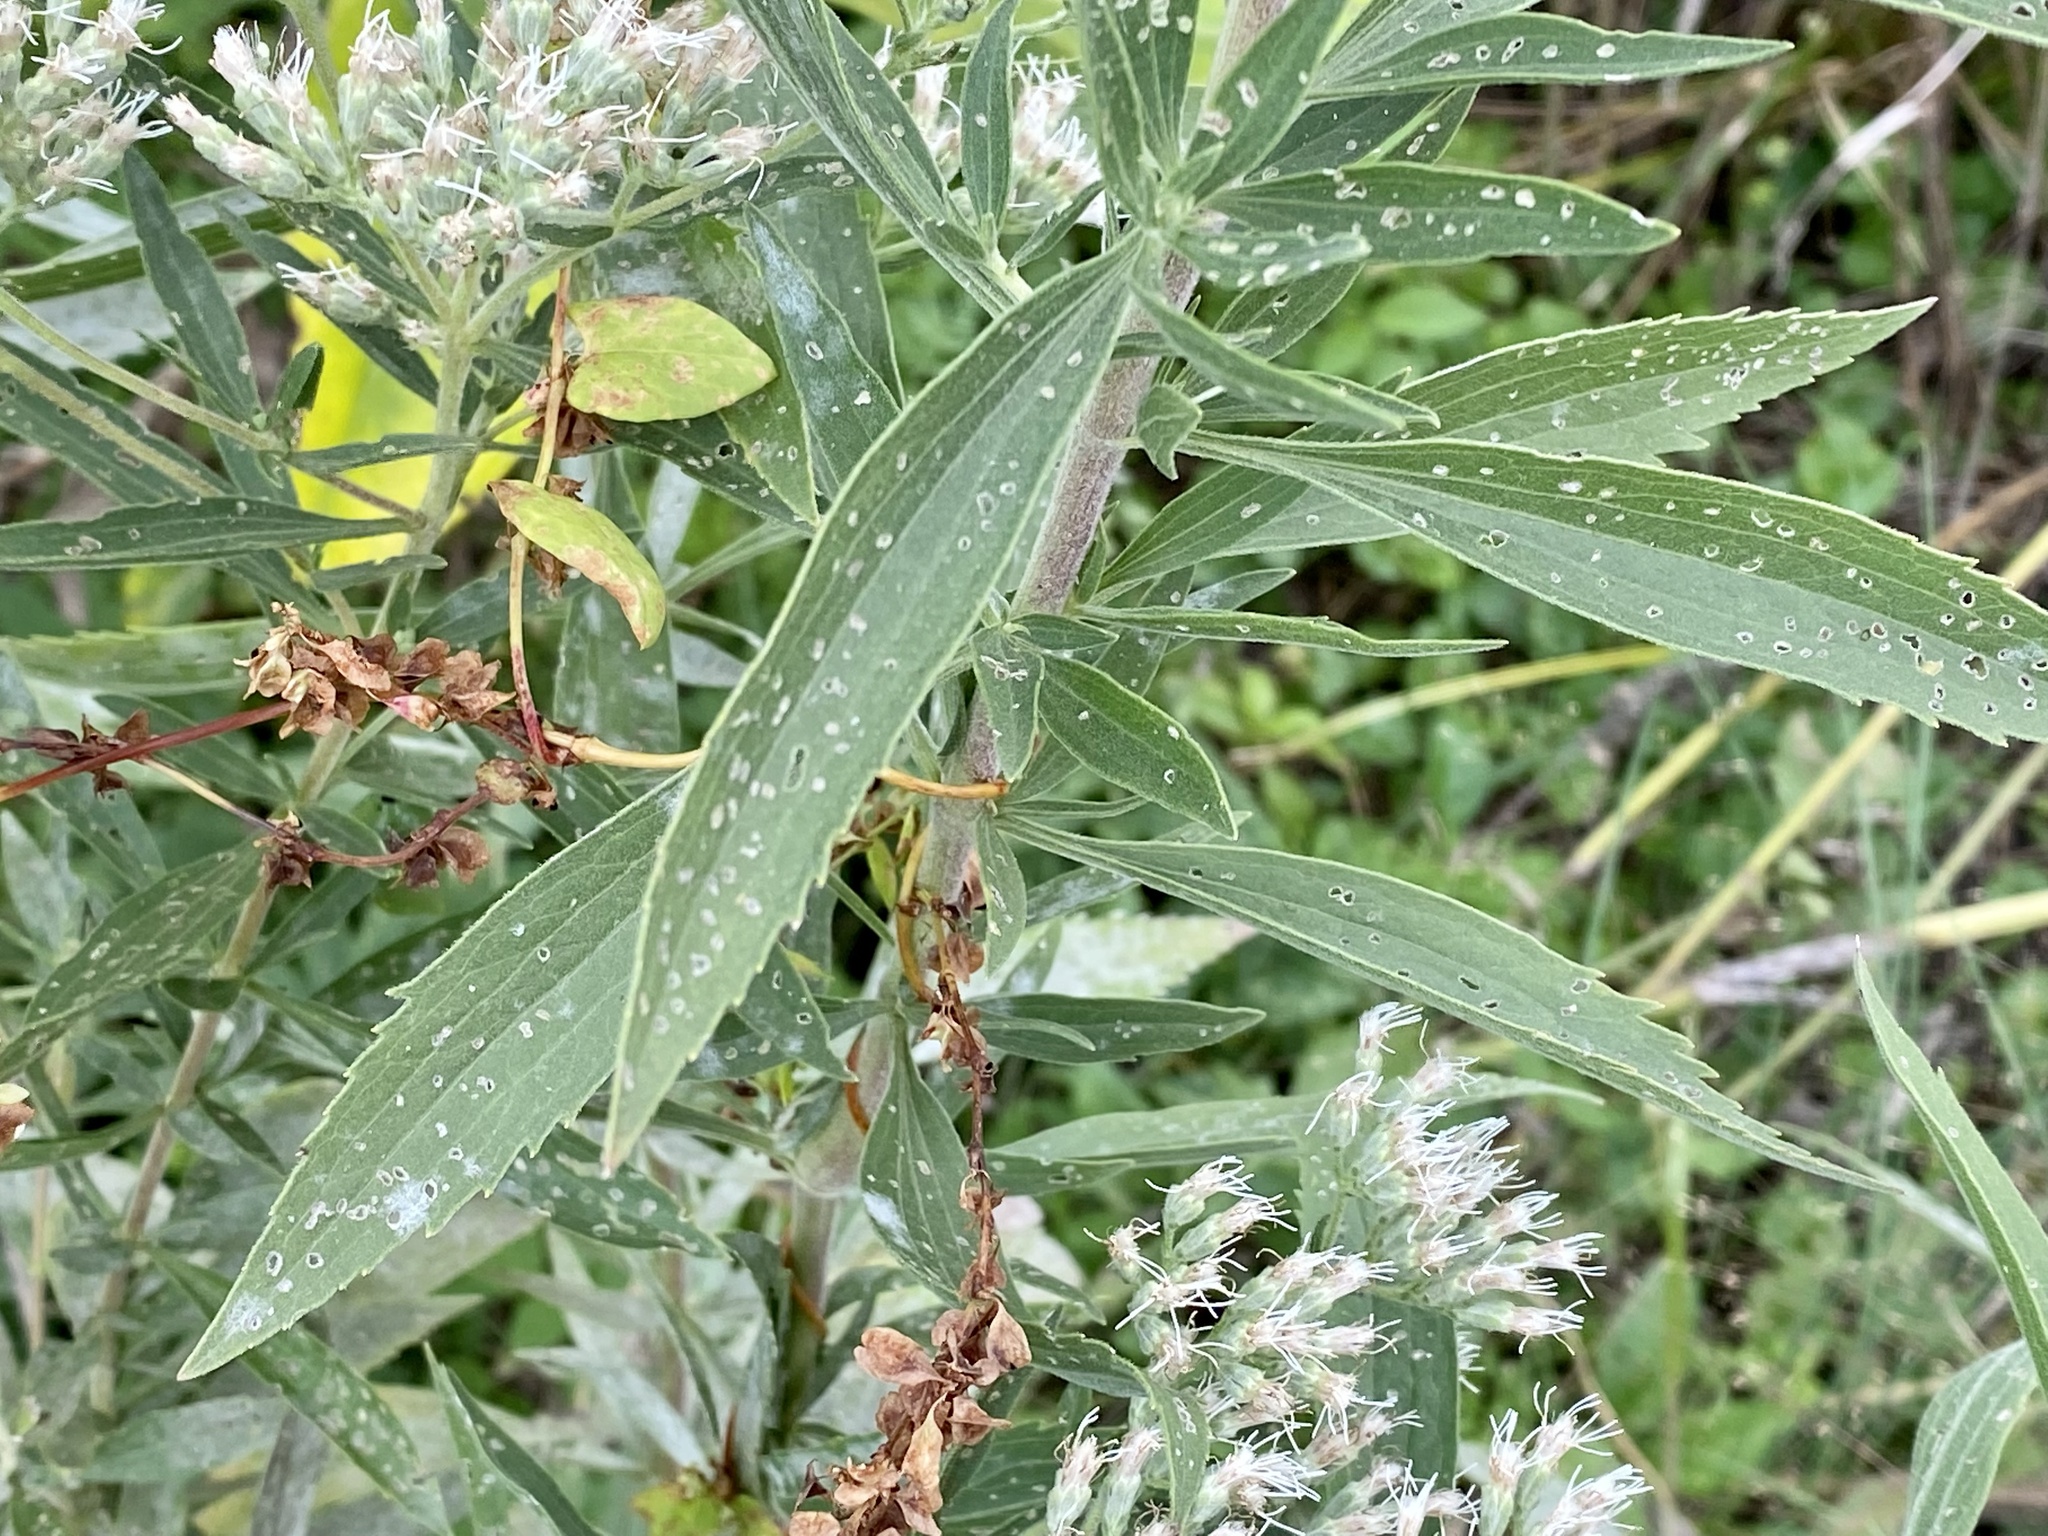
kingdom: Plantae
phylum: Tracheophyta
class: Magnoliopsida
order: Asterales
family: Asteraceae
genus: Eupatorium
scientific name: Eupatorium altissimum
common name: Tall thoroughwort
